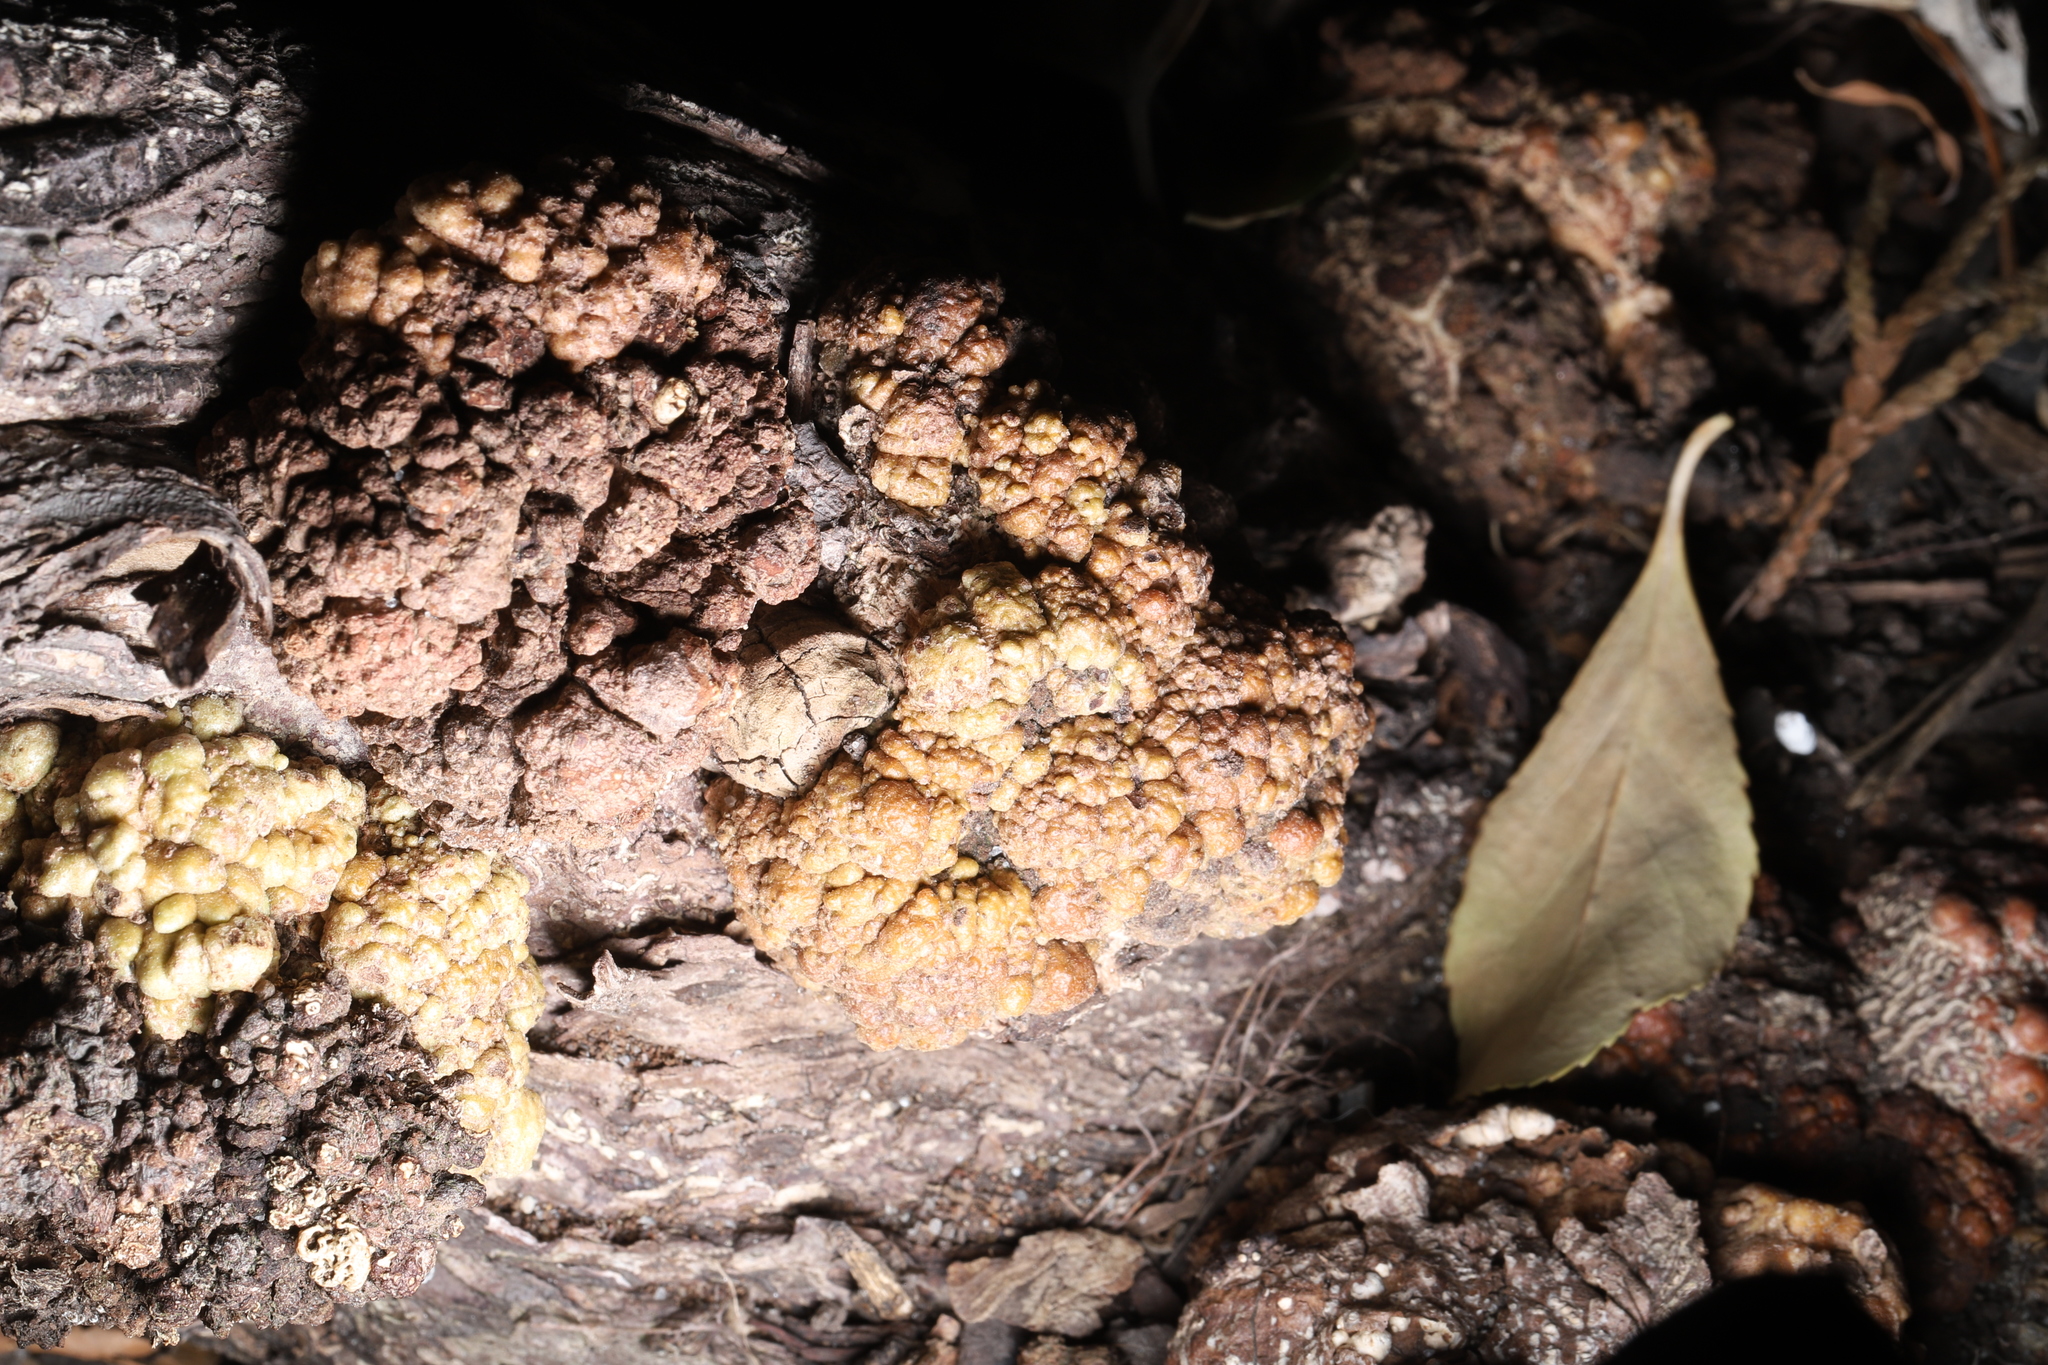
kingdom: Bacteria
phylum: Proteobacteria
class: Alphaproteobacteria
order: Rhizobiales
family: Rhizobiaceae
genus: Rhizobium
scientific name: Rhizobium Agrobacterium radiobacter
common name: Bacterial crown gall
